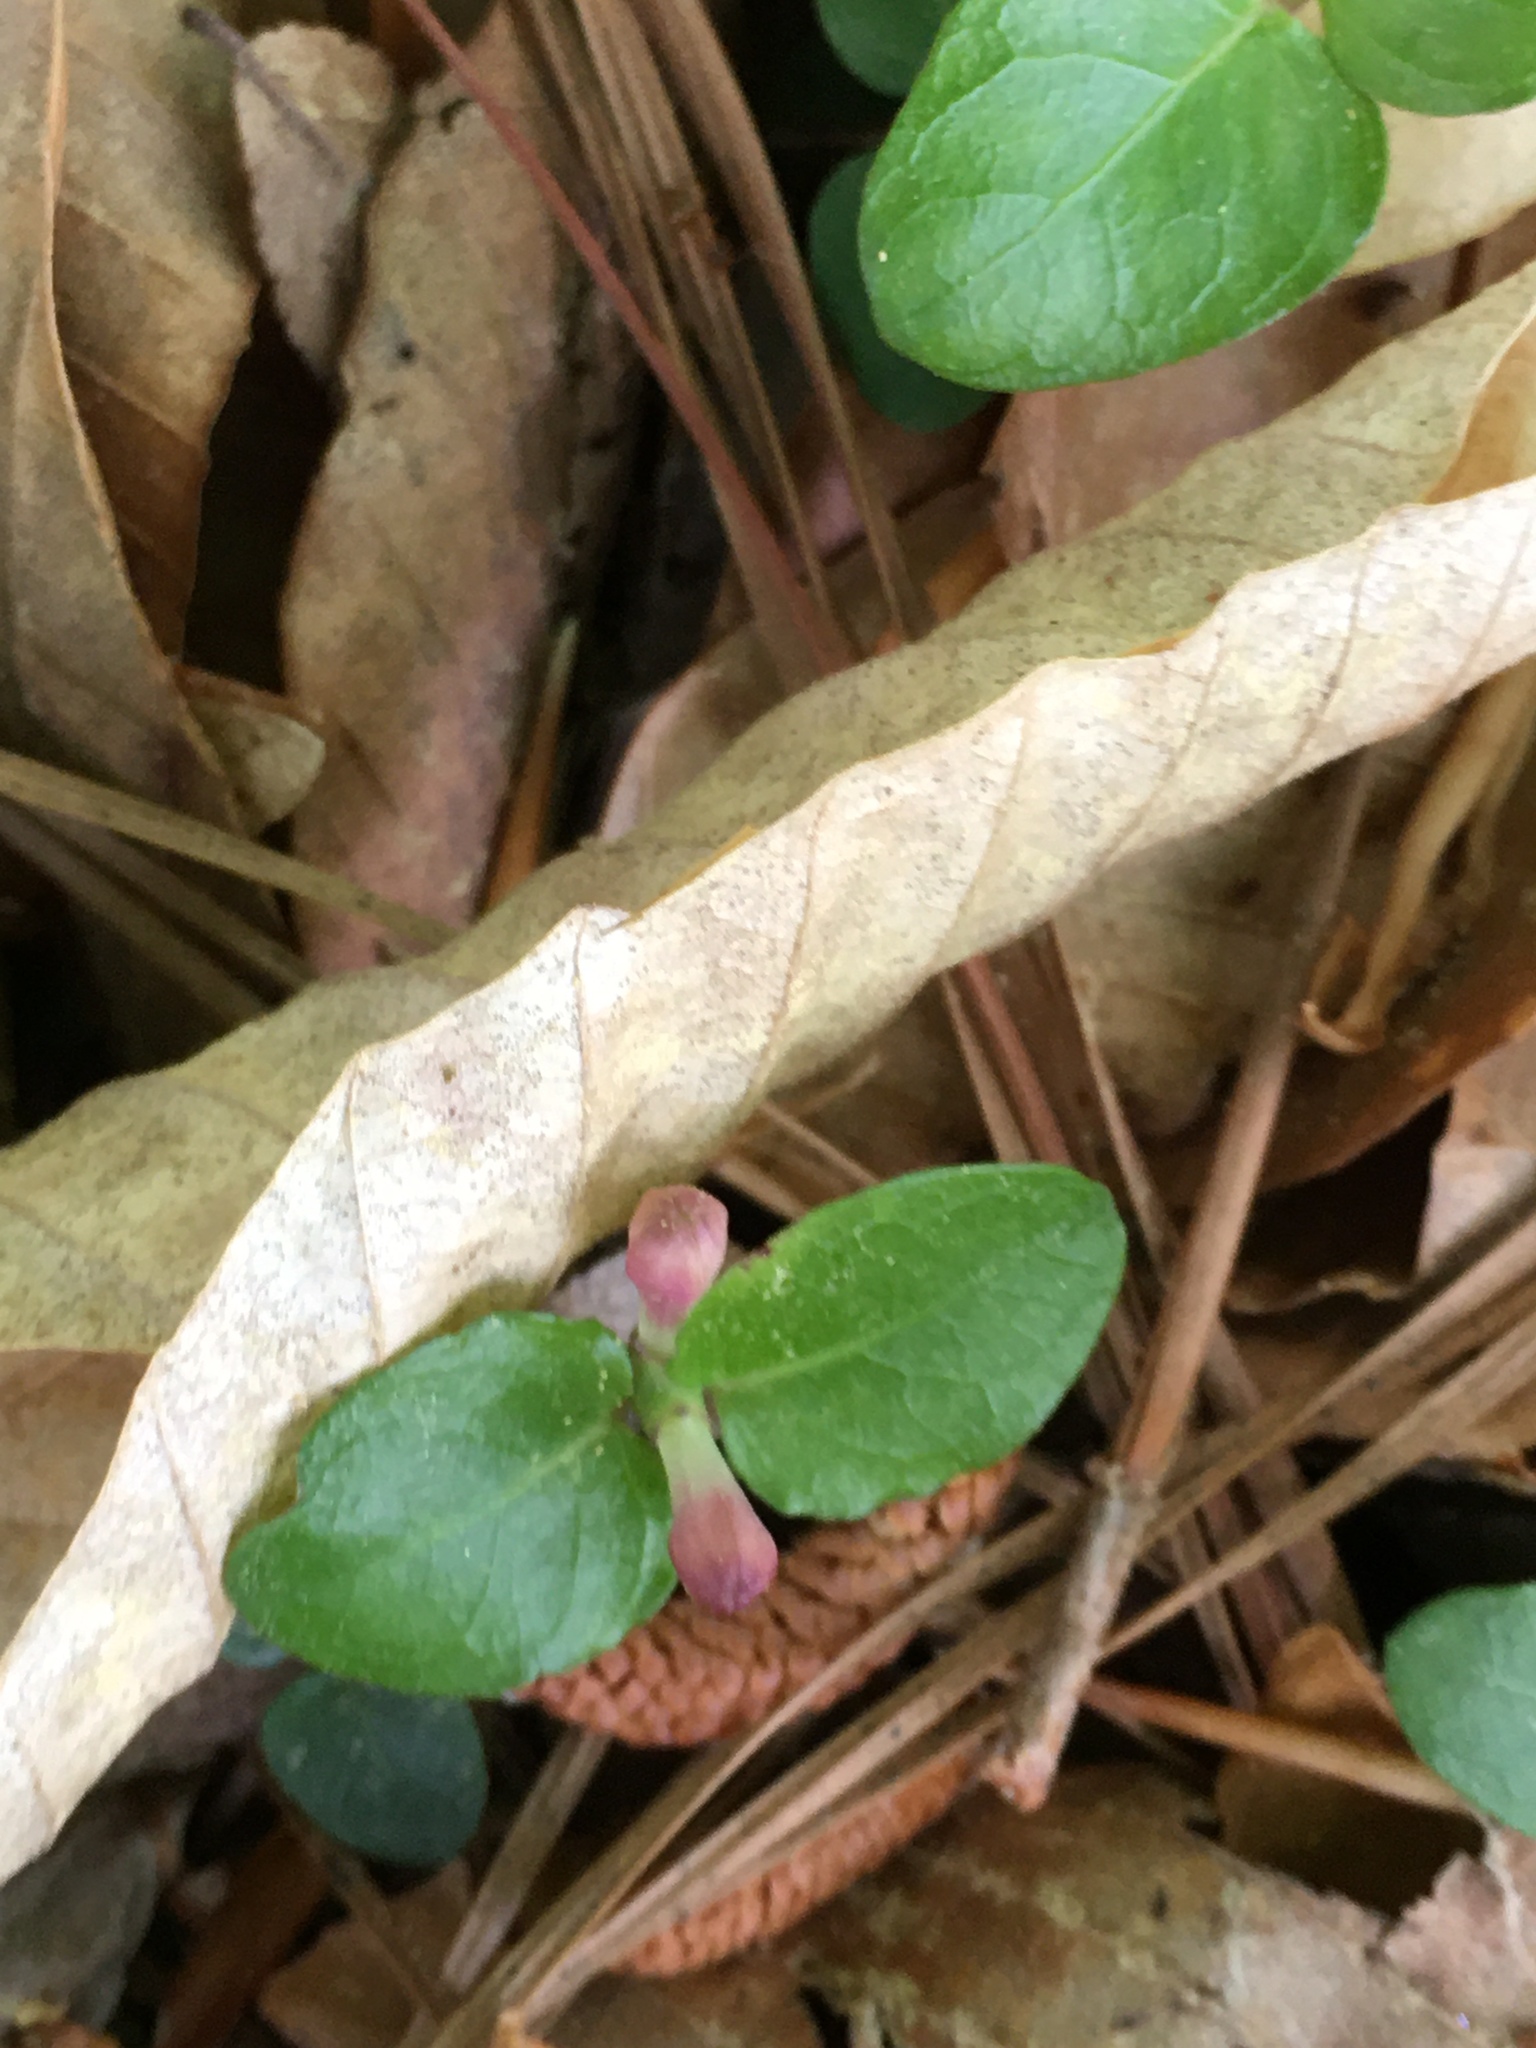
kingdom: Plantae
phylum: Tracheophyta
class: Magnoliopsida
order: Gentianales
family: Rubiaceae
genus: Mitchella
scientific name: Mitchella repens
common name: Partridge-berry
